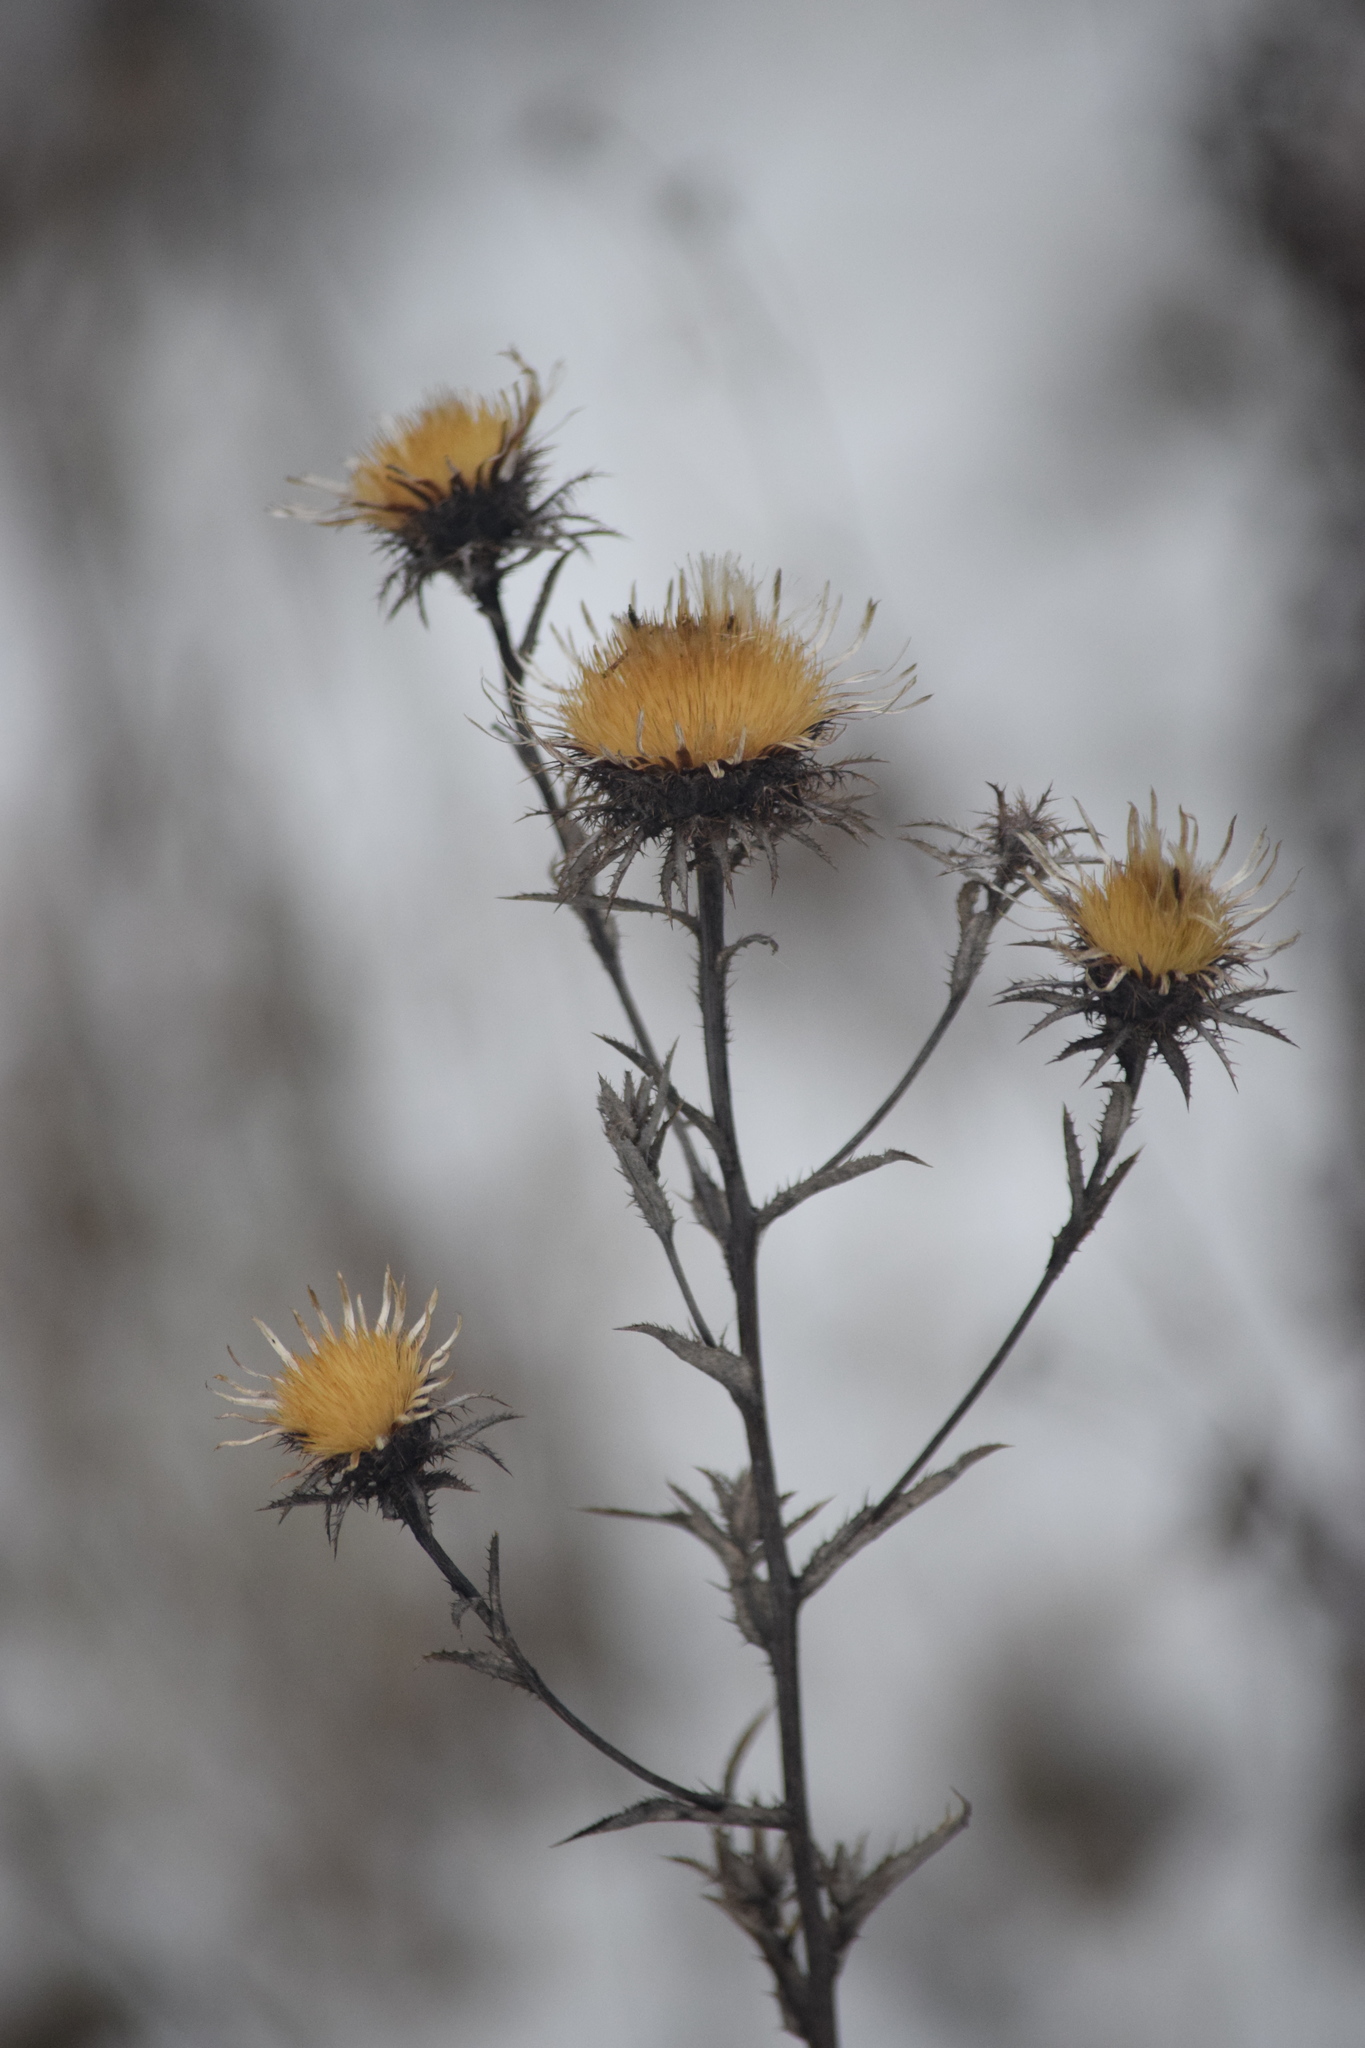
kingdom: Plantae
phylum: Tracheophyta
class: Magnoliopsida
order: Asterales
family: Asteraceae
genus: Carlina
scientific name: Carlina biebersteinii
